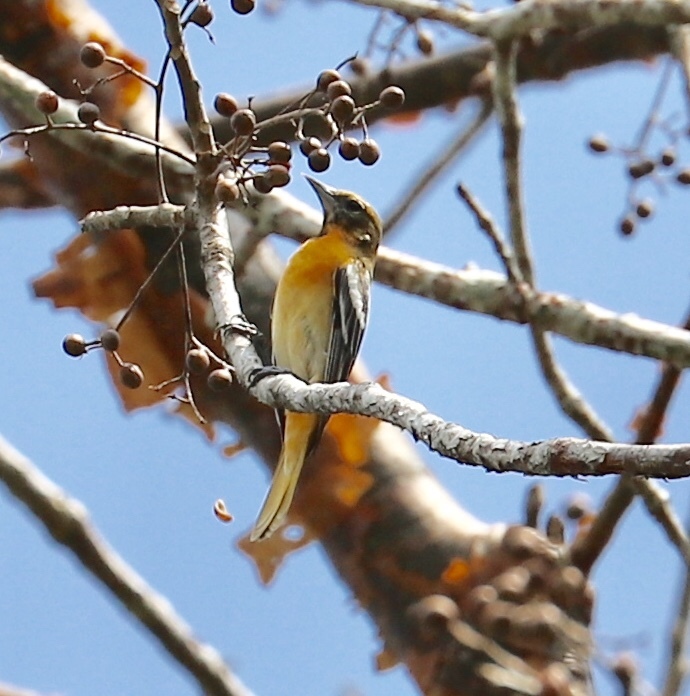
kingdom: Animalia
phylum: Chordata
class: Aves
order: Passeriformes
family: Icteridae
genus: Icterus
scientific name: Icterus galbula
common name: Baltimore oriole
